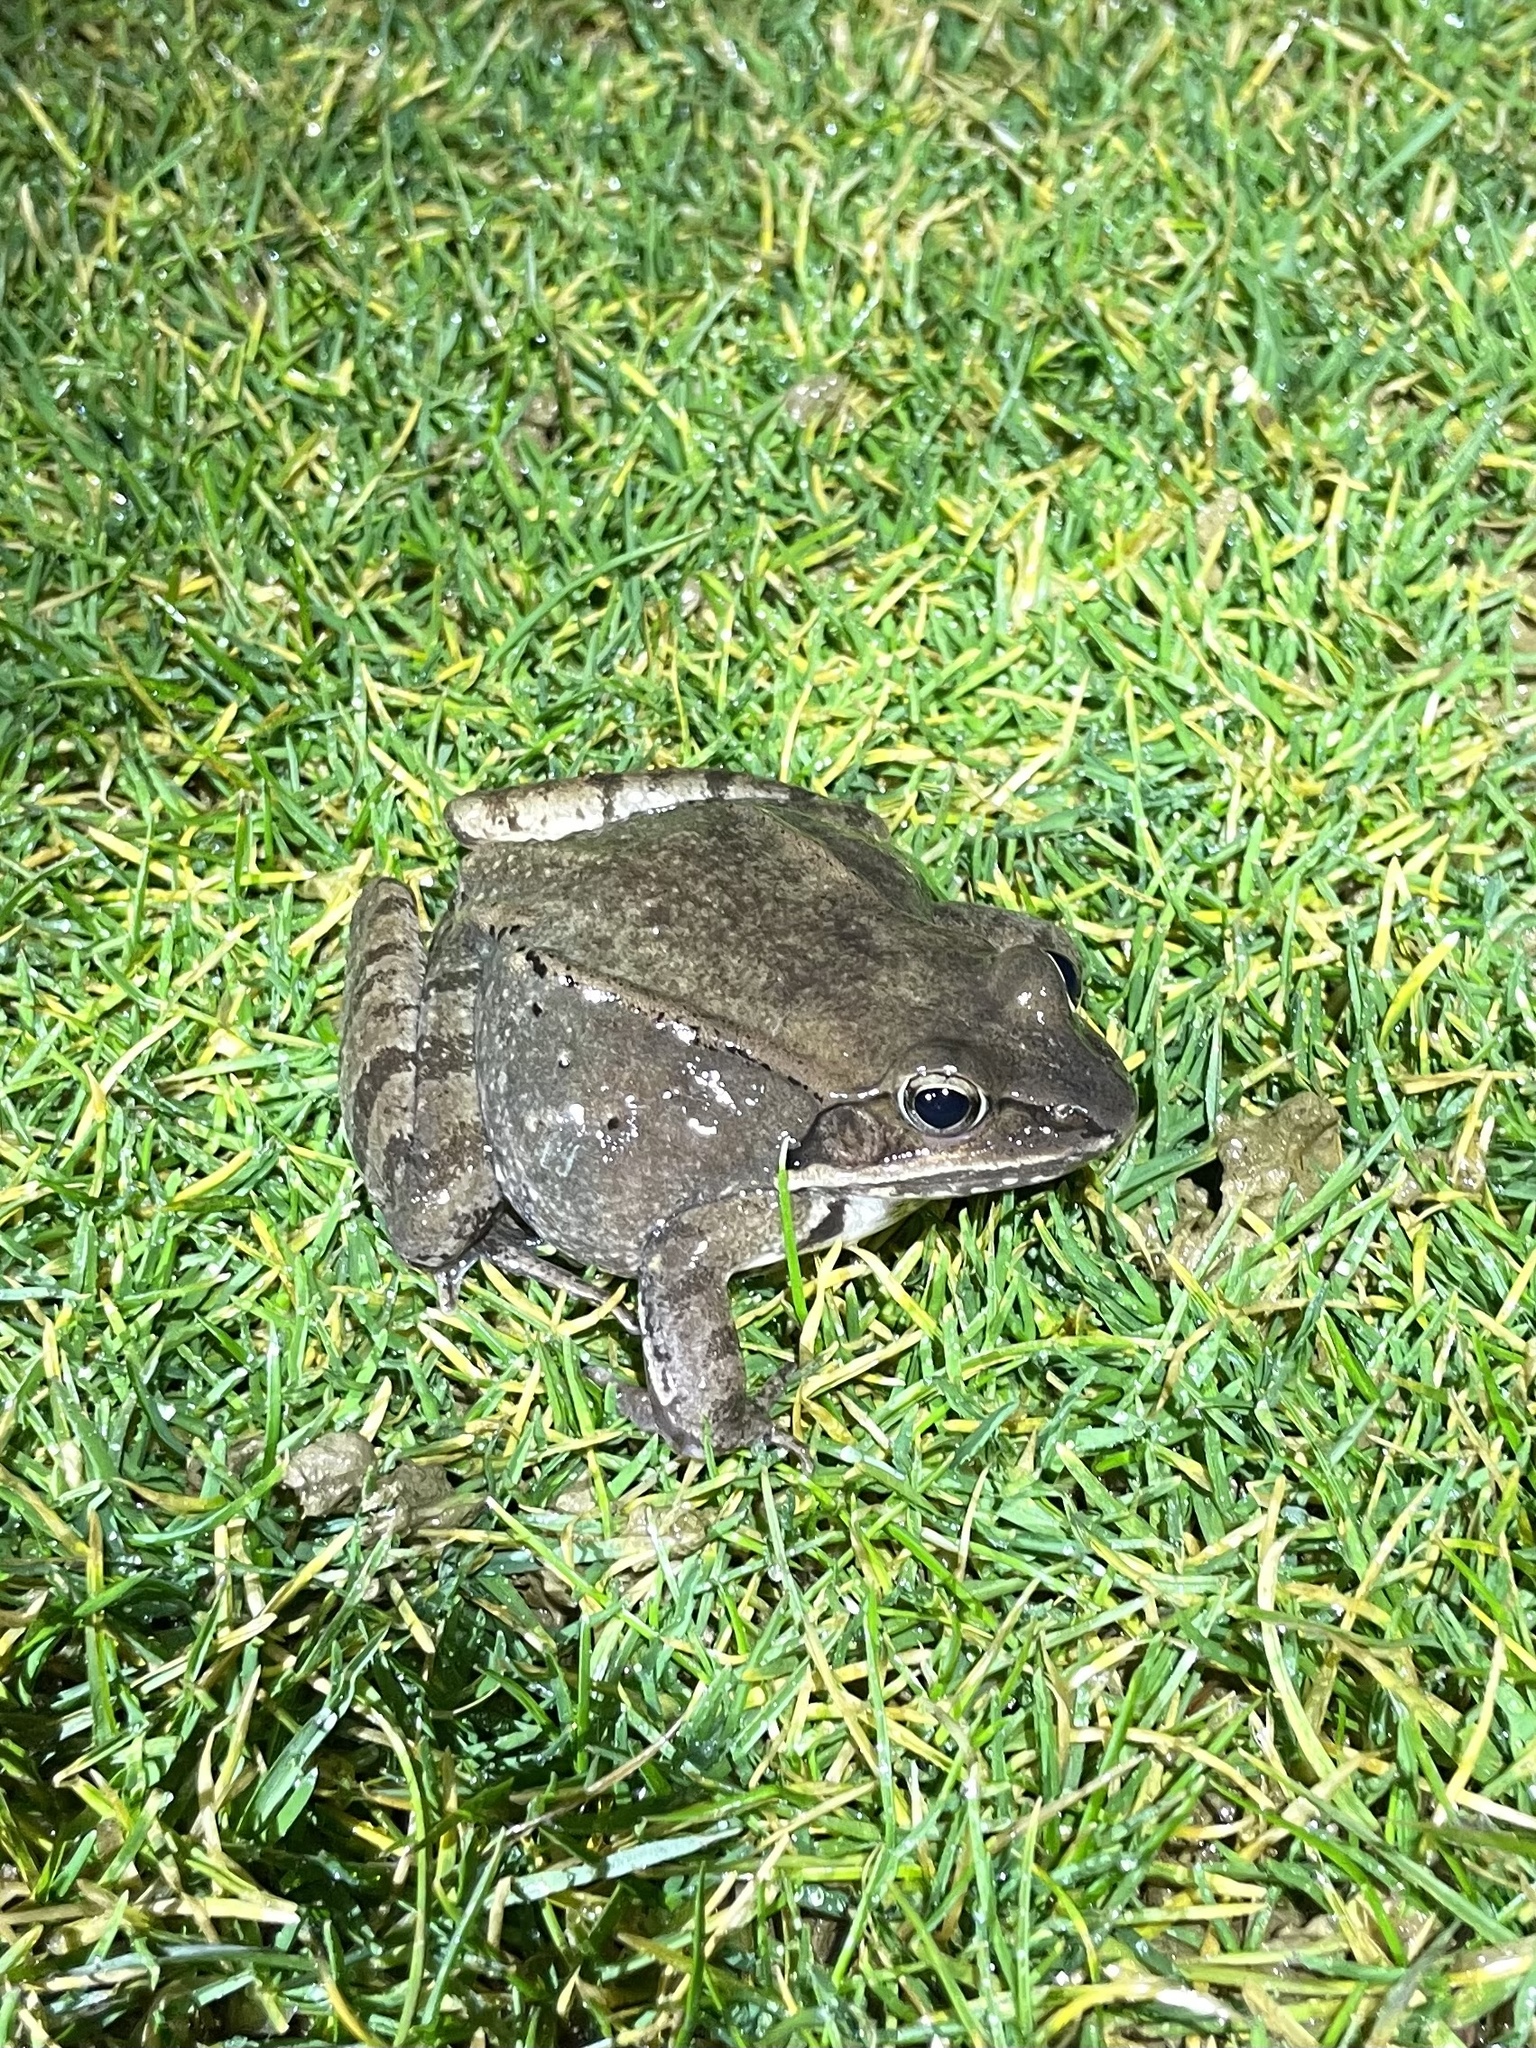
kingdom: Animalia
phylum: Chordata
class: Amphibia
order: Anura
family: Ranidae
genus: Lithobates
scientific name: Lithobates sylvaticus
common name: Wood frog
